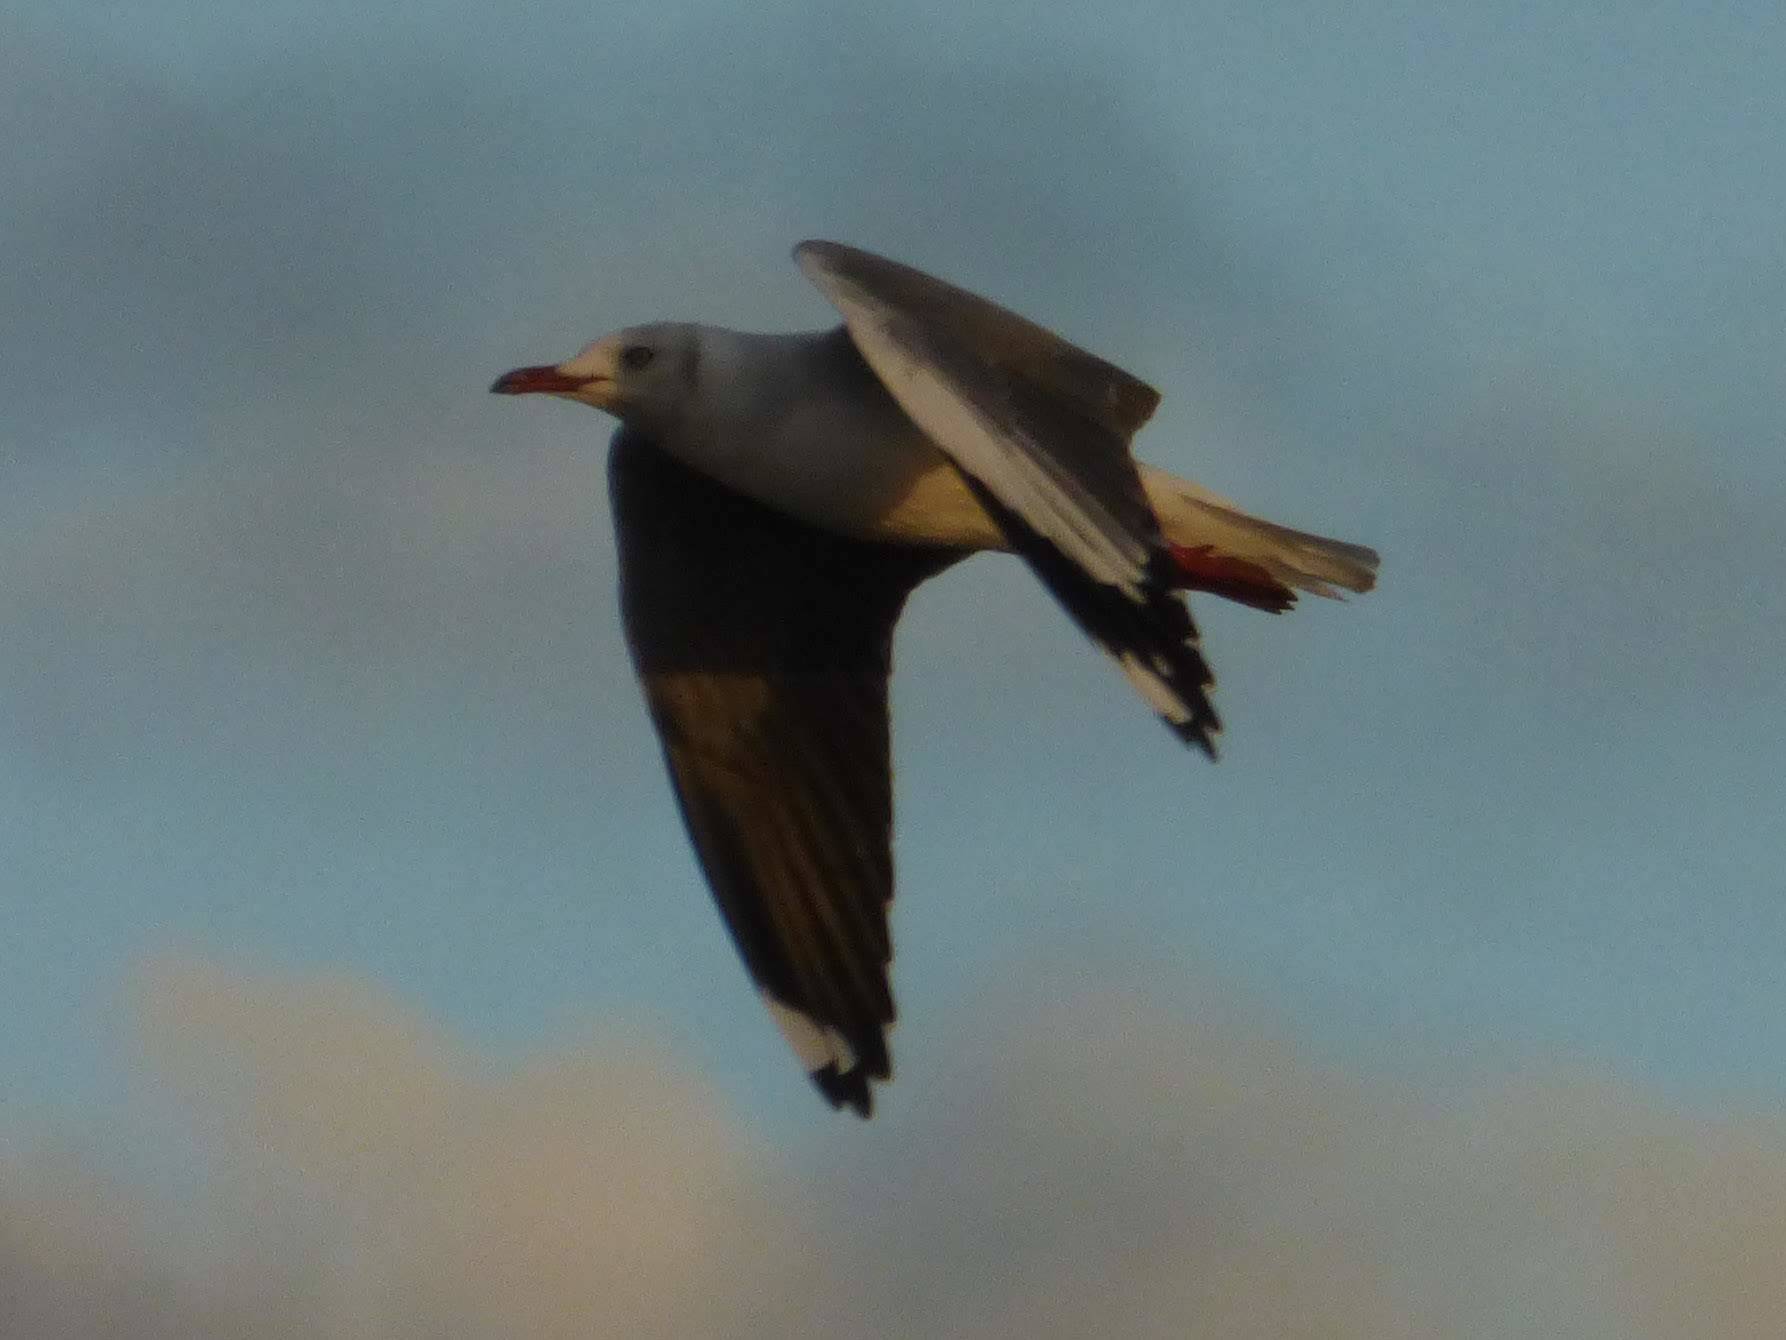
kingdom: Animalia
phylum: Chordata
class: Aves
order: Charadriiformes
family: Laridae
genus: Chroicocephalus
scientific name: Chroicocephalus cirrocephalus
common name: Grey-headed gull
